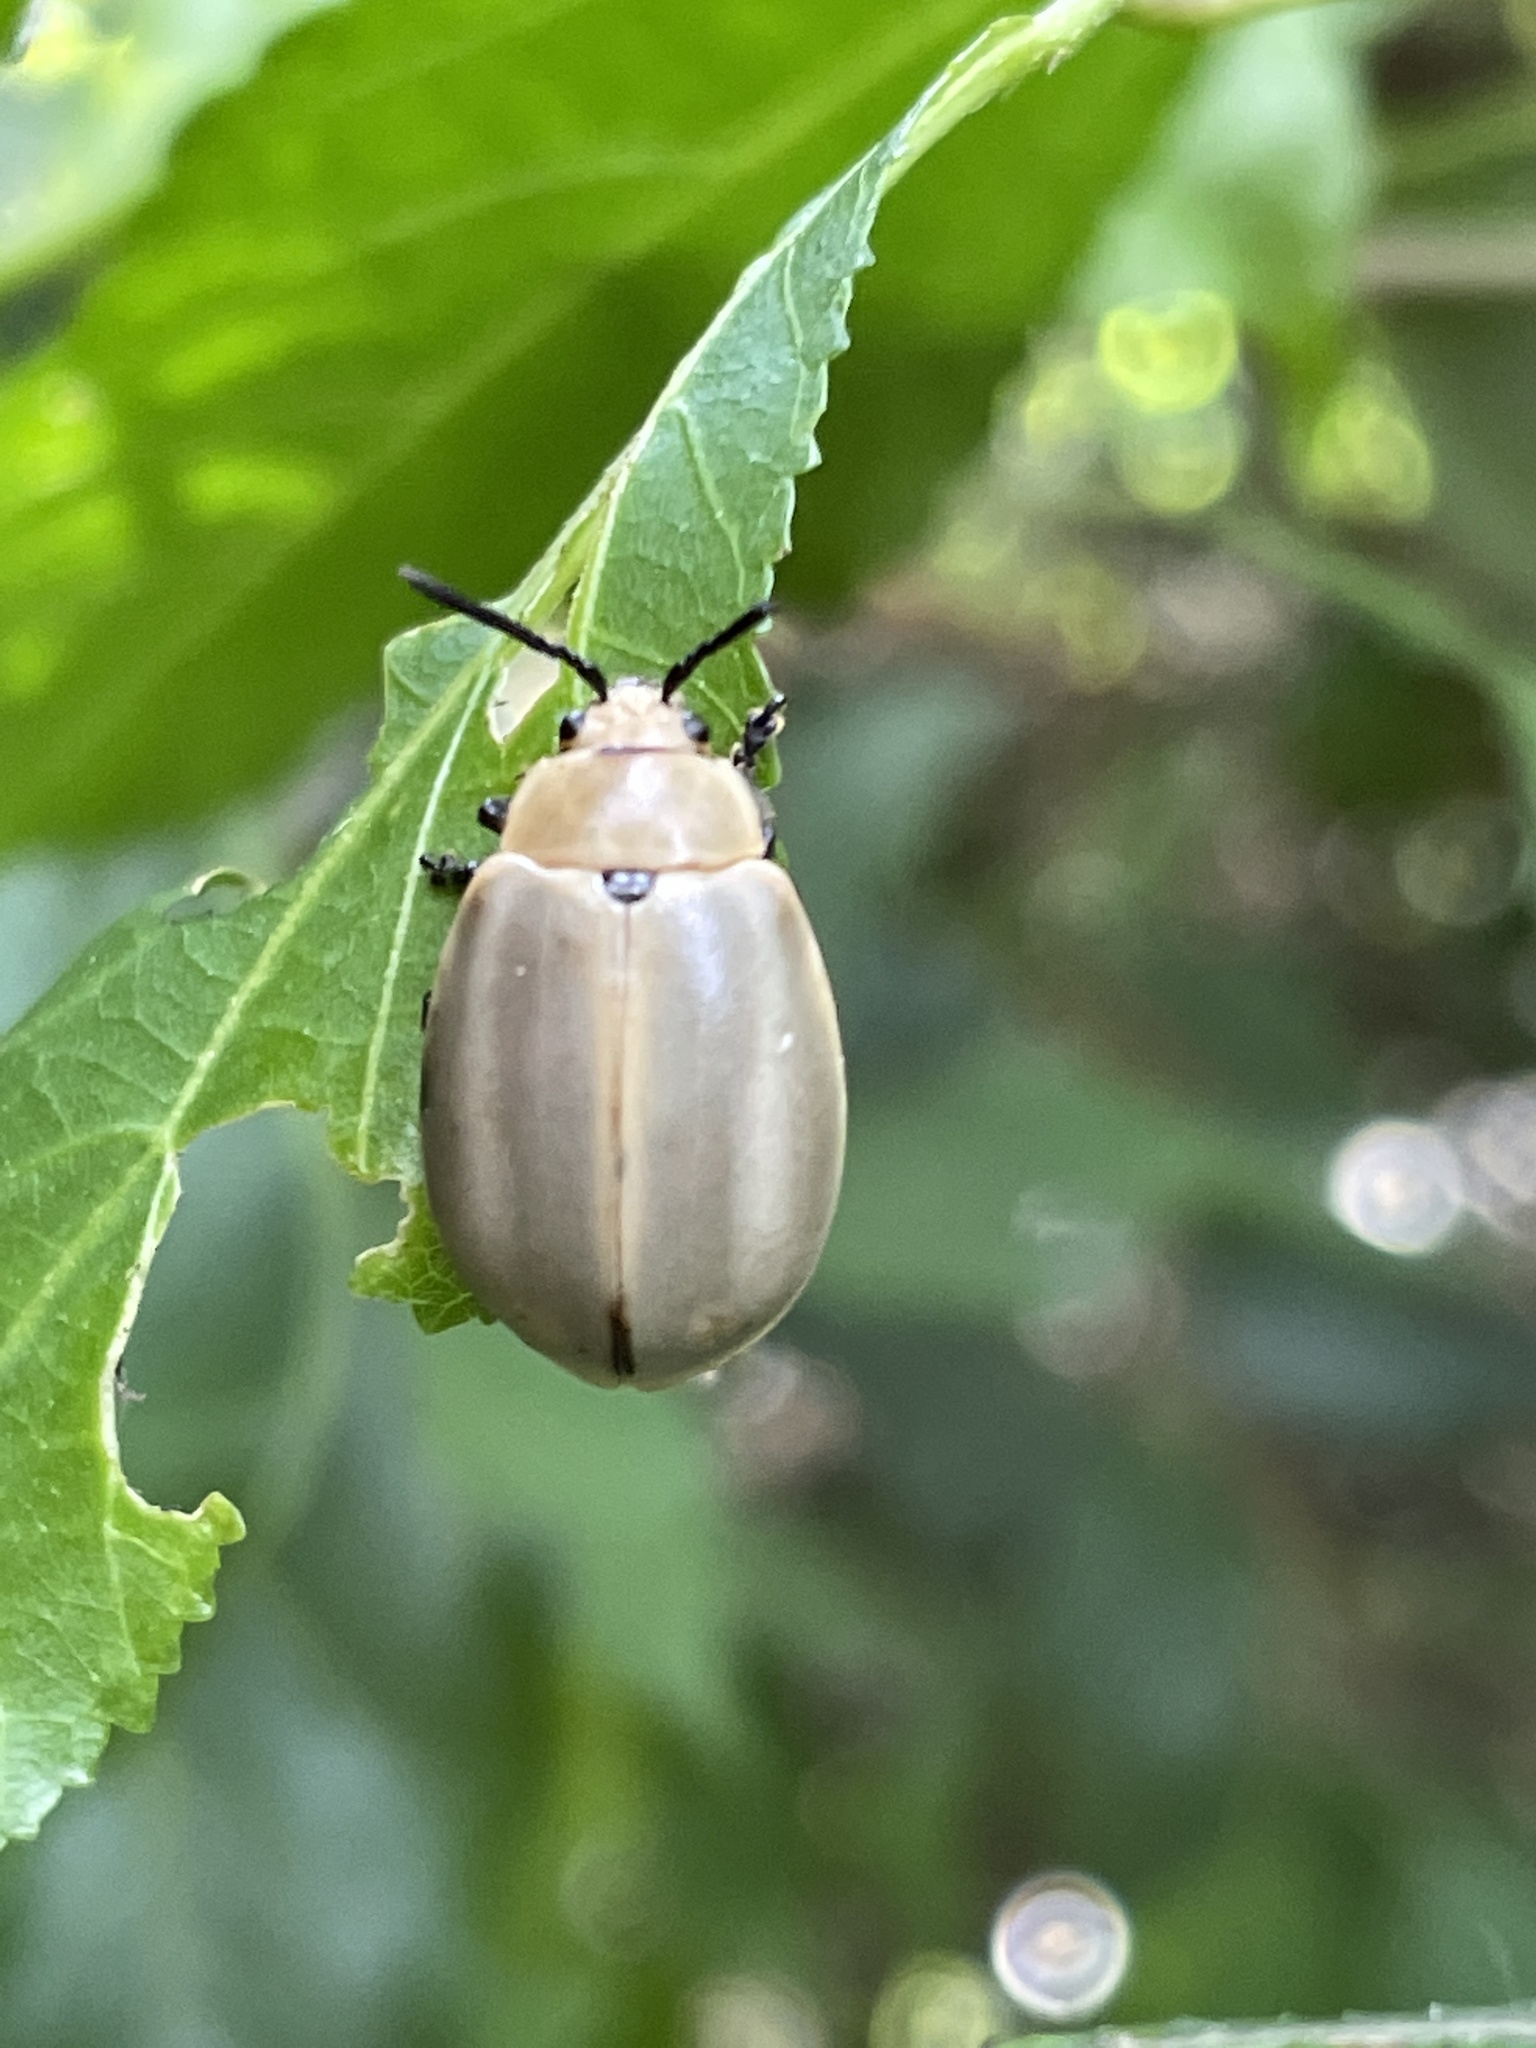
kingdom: Animalia
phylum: Arthropoda
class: Insecta
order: Coleoptera
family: Chrysomelidae
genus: Cerochroa
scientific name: Cerochroa
